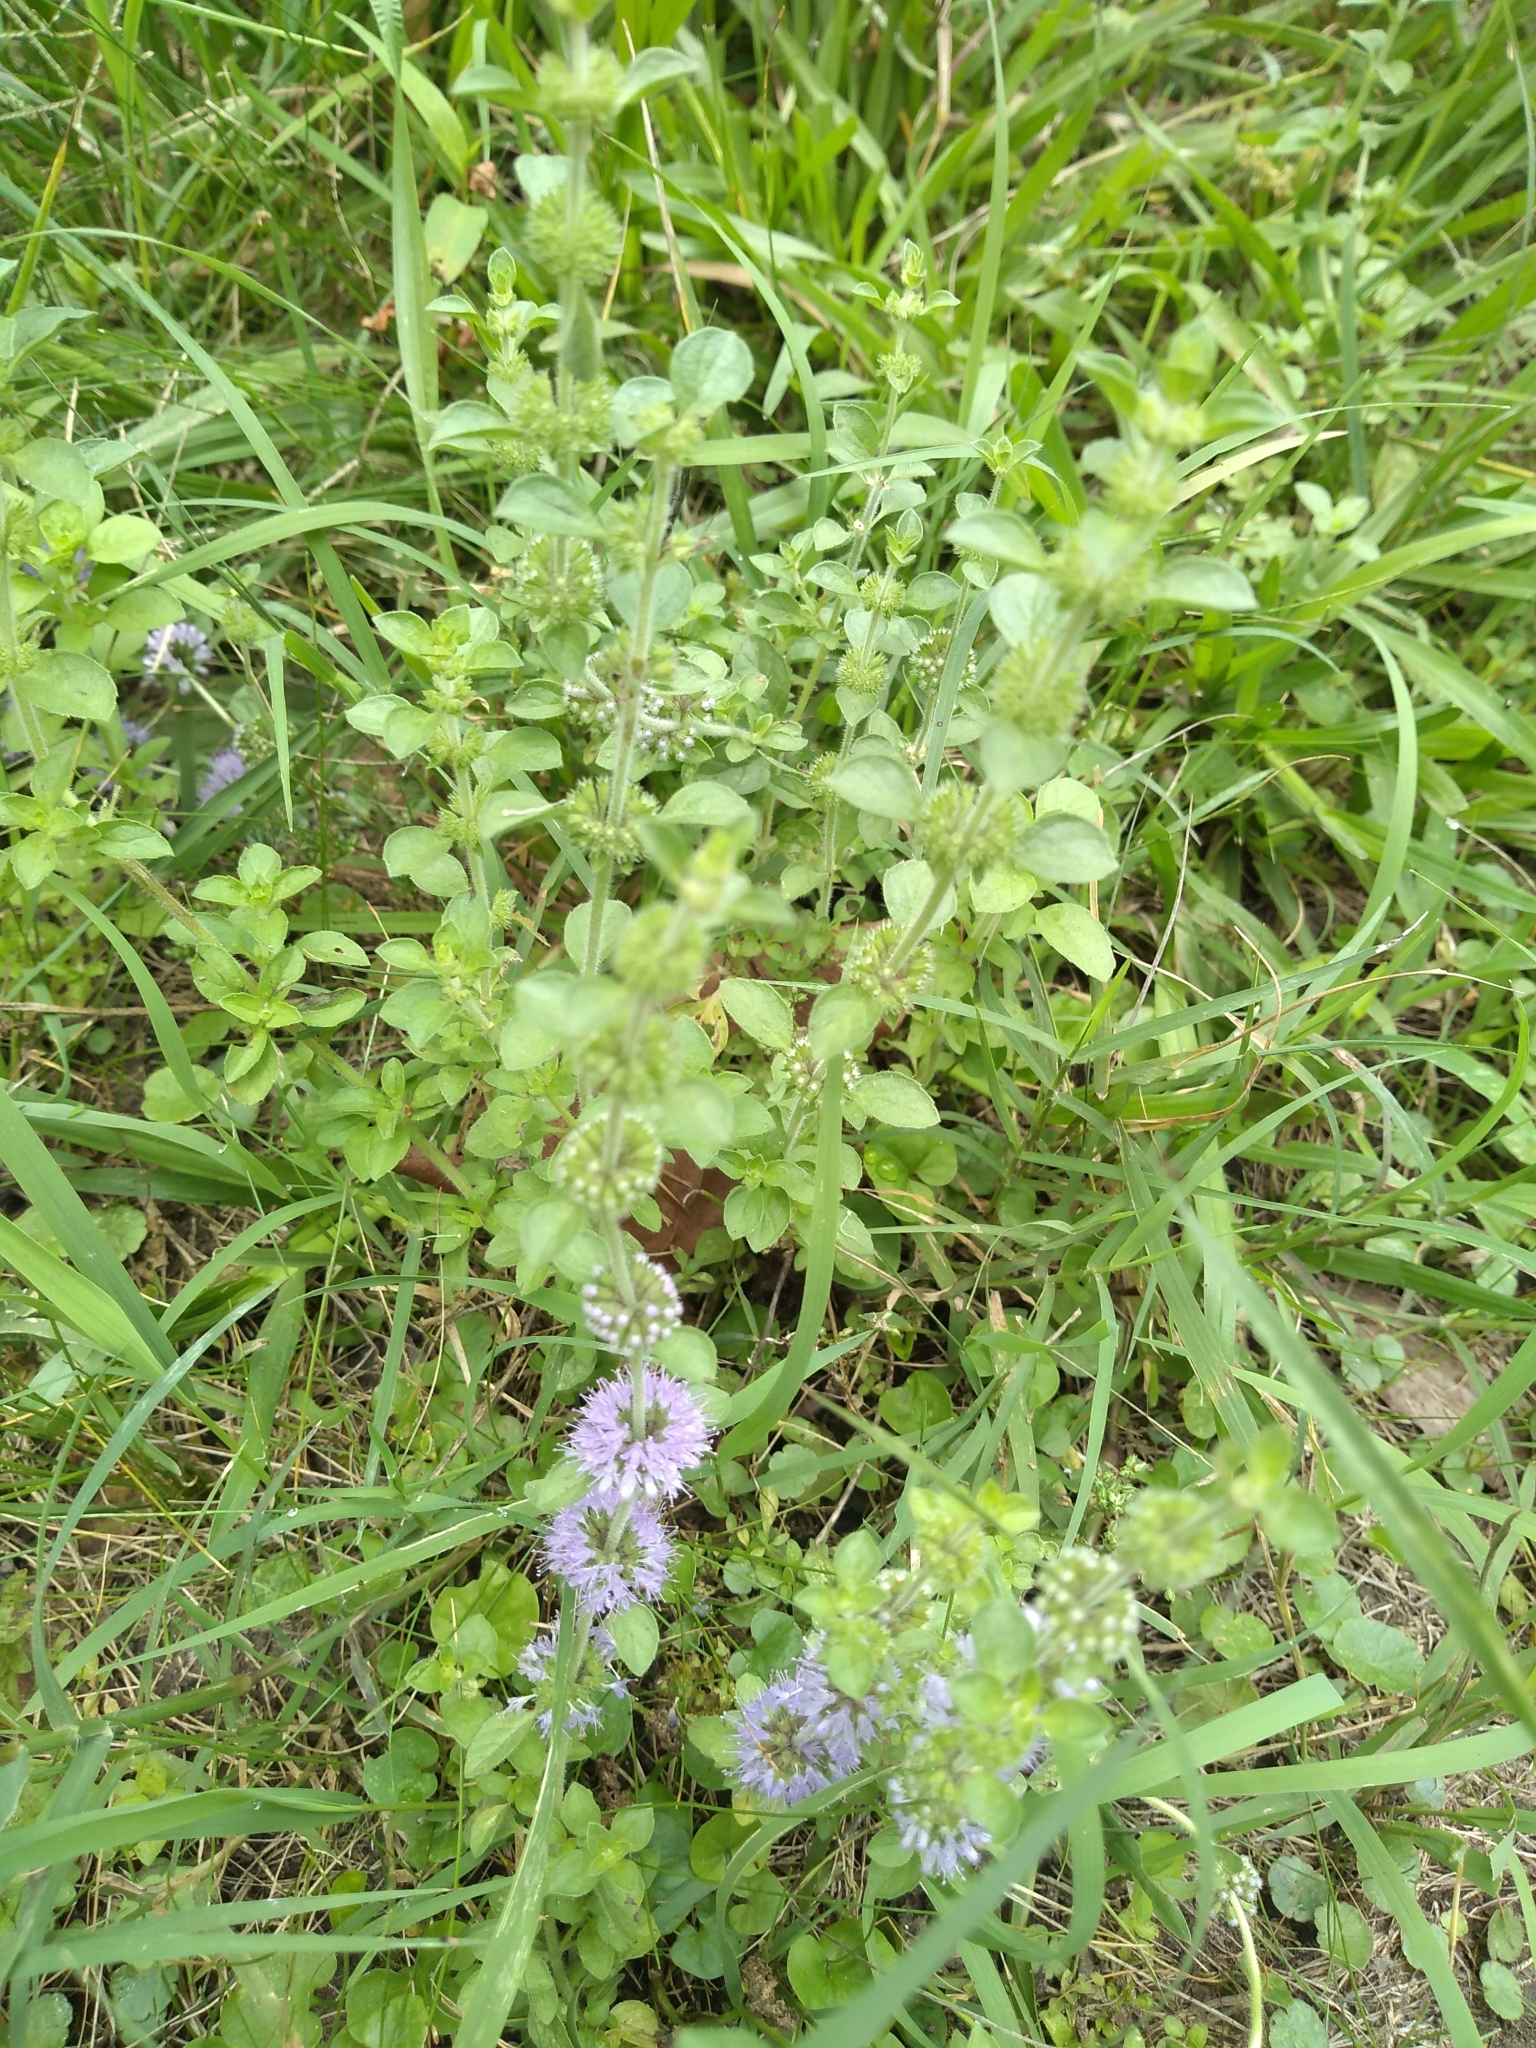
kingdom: Plantae
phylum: Tracheophyta
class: Magnoliopsida
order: Lamiales
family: Lamiaceae
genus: Mentha
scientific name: Mentha pulegium
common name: Pennyroyal
